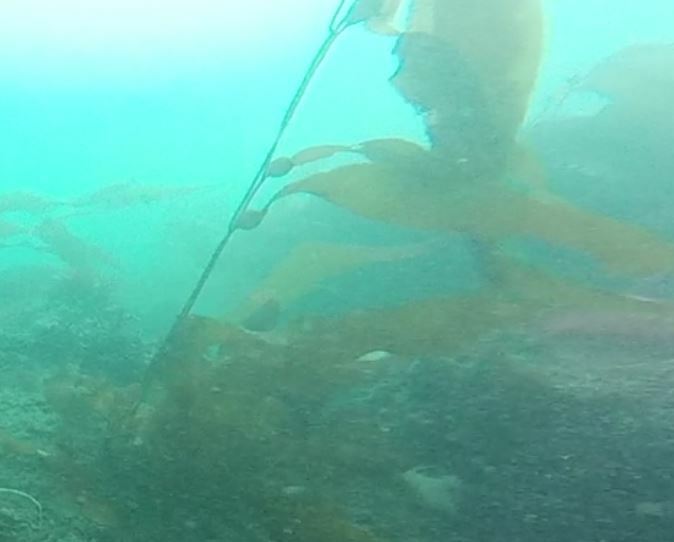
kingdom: Chromista
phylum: Ochrophyta
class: Phaeophyceae
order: Laminariales
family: Laminariaceae
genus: Macrocystis
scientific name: Macrocystis pyrifera
